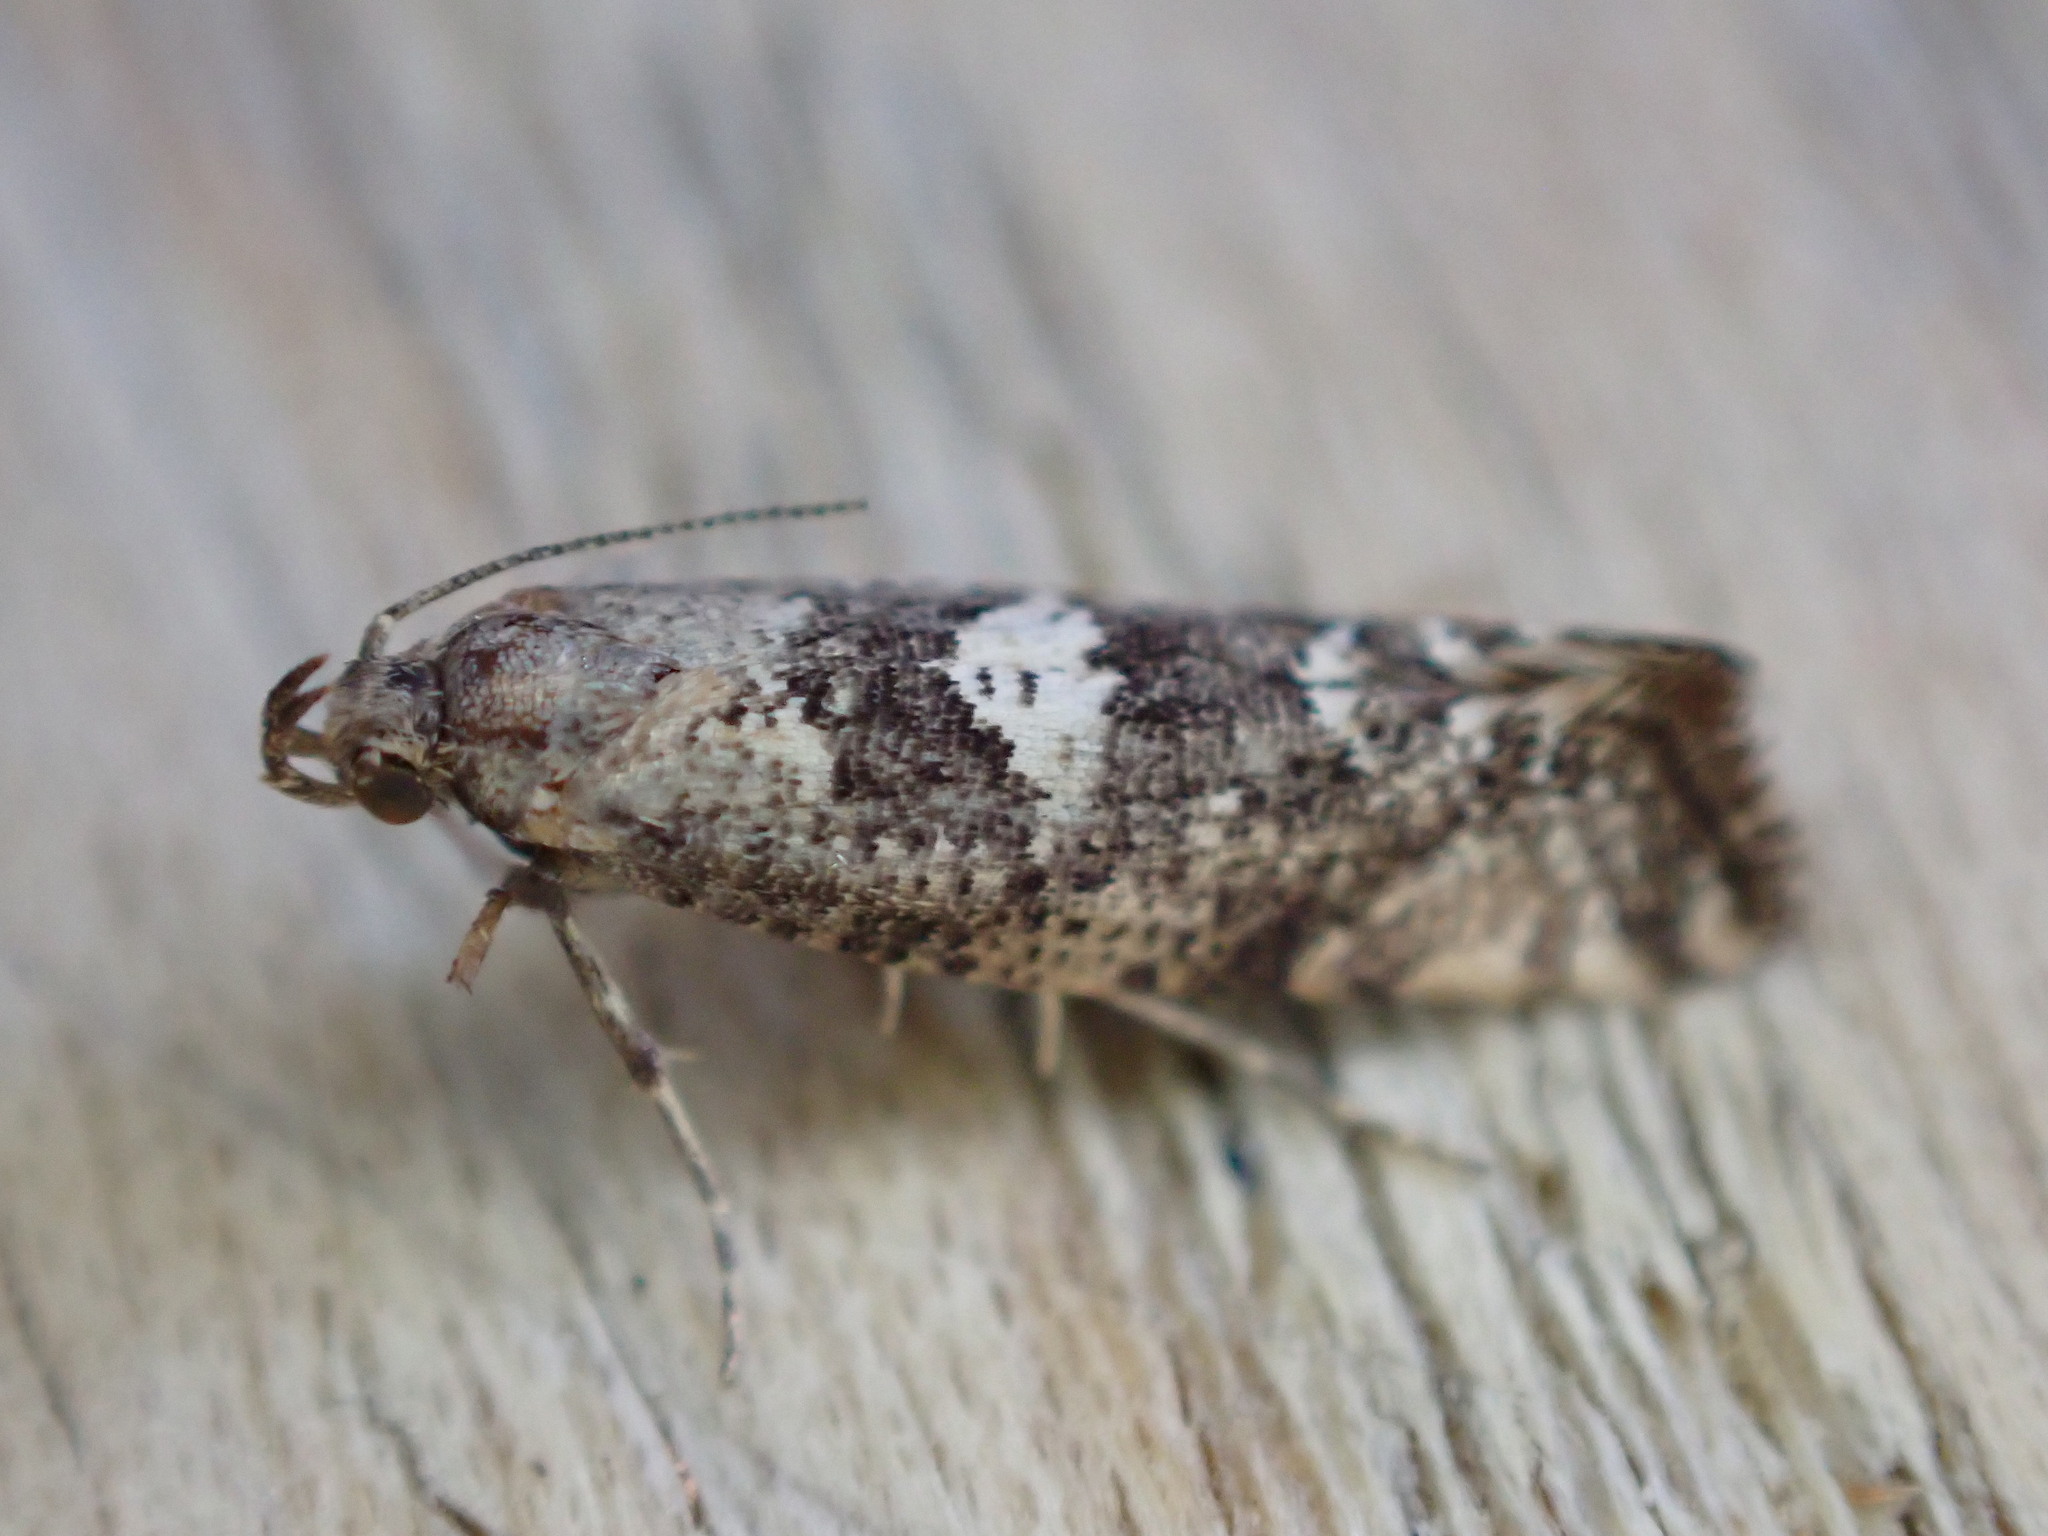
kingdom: Animalia
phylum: Arthropoda
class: Insecta
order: Lepidoptera
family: Glyphipterigidae
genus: Acrolepia
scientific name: Acrolepia assectella
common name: Onion leaf miner
